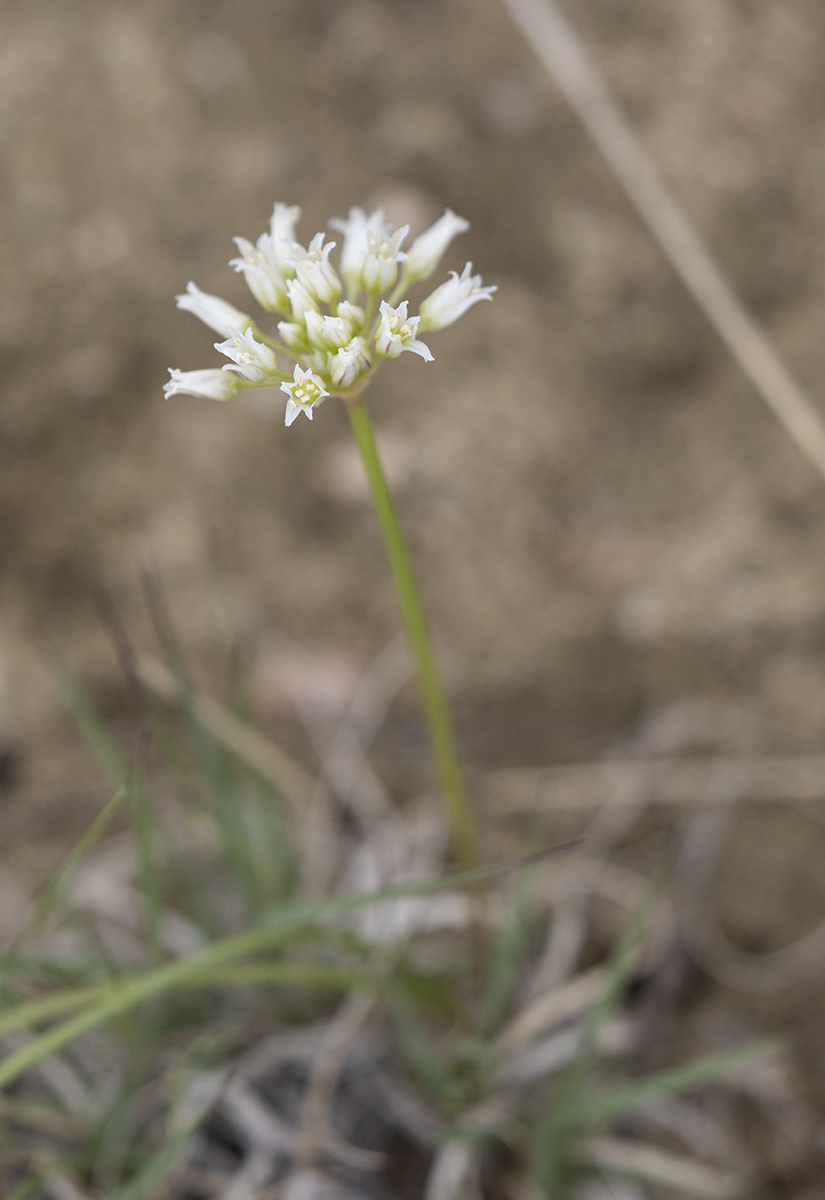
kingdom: Plantae
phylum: Tracheophyta
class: Liliopsida
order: Asparagales
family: Amaryllidaceae
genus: Allium
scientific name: Allium textile
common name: Prairie onion
